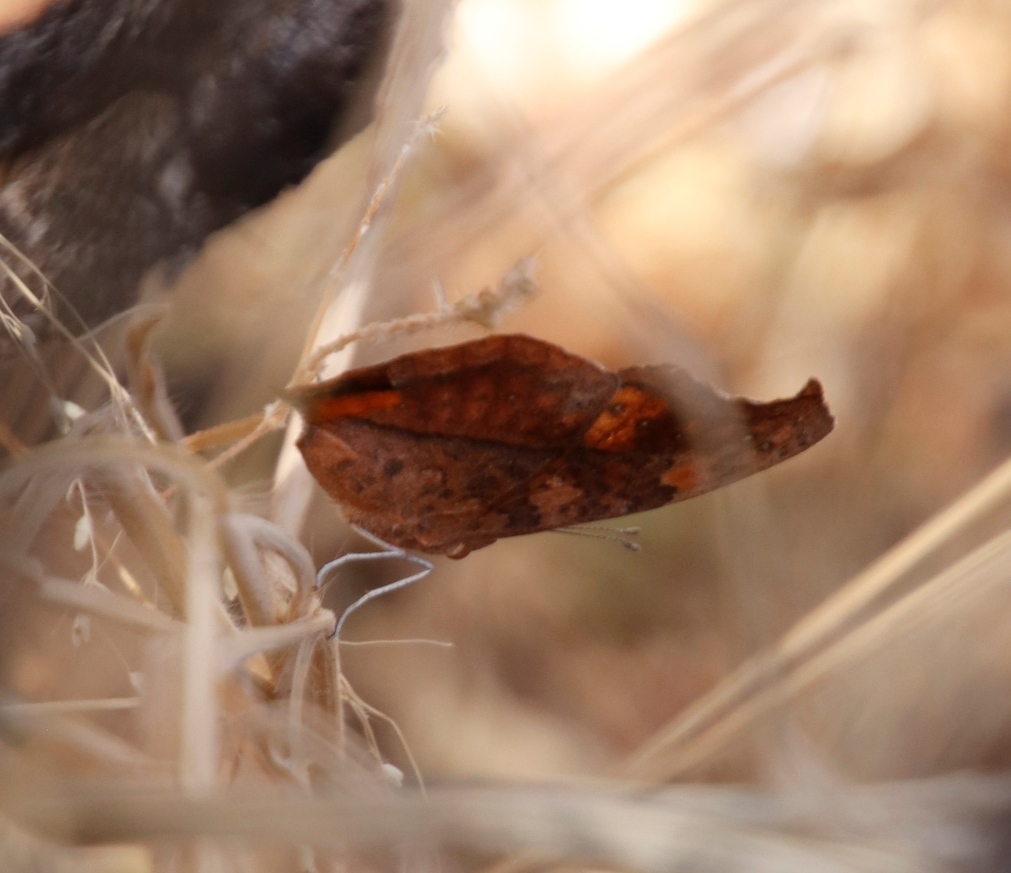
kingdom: Animalia
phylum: Arthropoda
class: Insecta
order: Lepidoptera
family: Nymphalidae
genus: Junonia
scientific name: Junonia antilope
